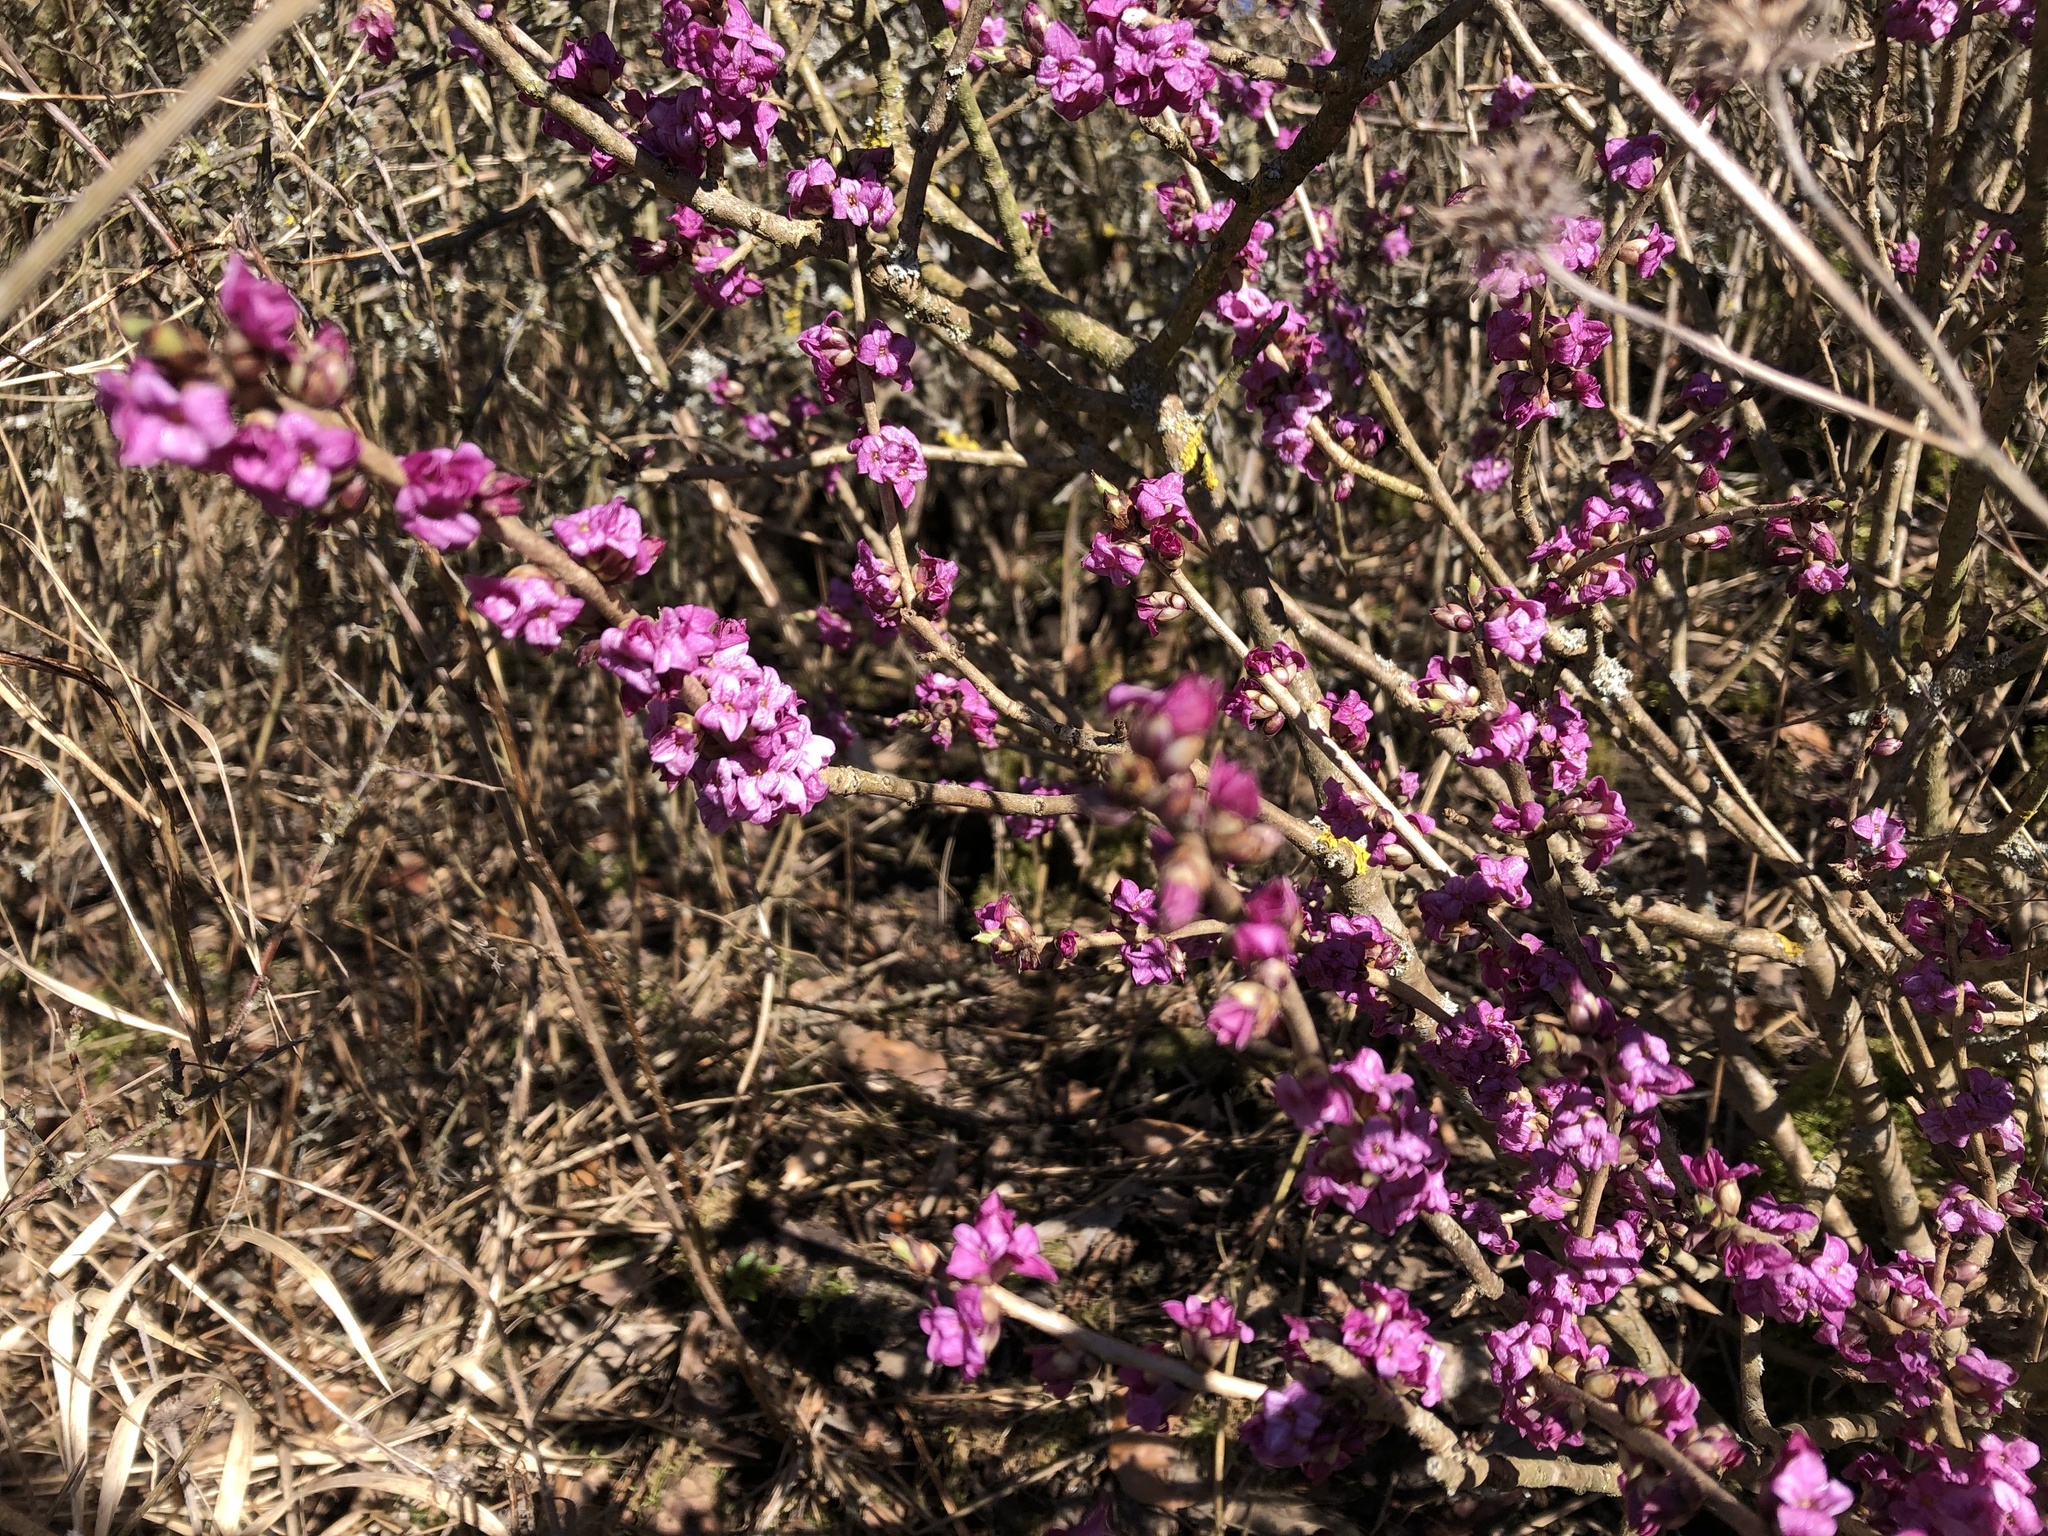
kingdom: Plantae
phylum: Tracheophyta
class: Magnoliopsida
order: Malvales
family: Thymelaeaceae
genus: Daphne
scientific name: Daphne mezereum
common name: Mezereon
